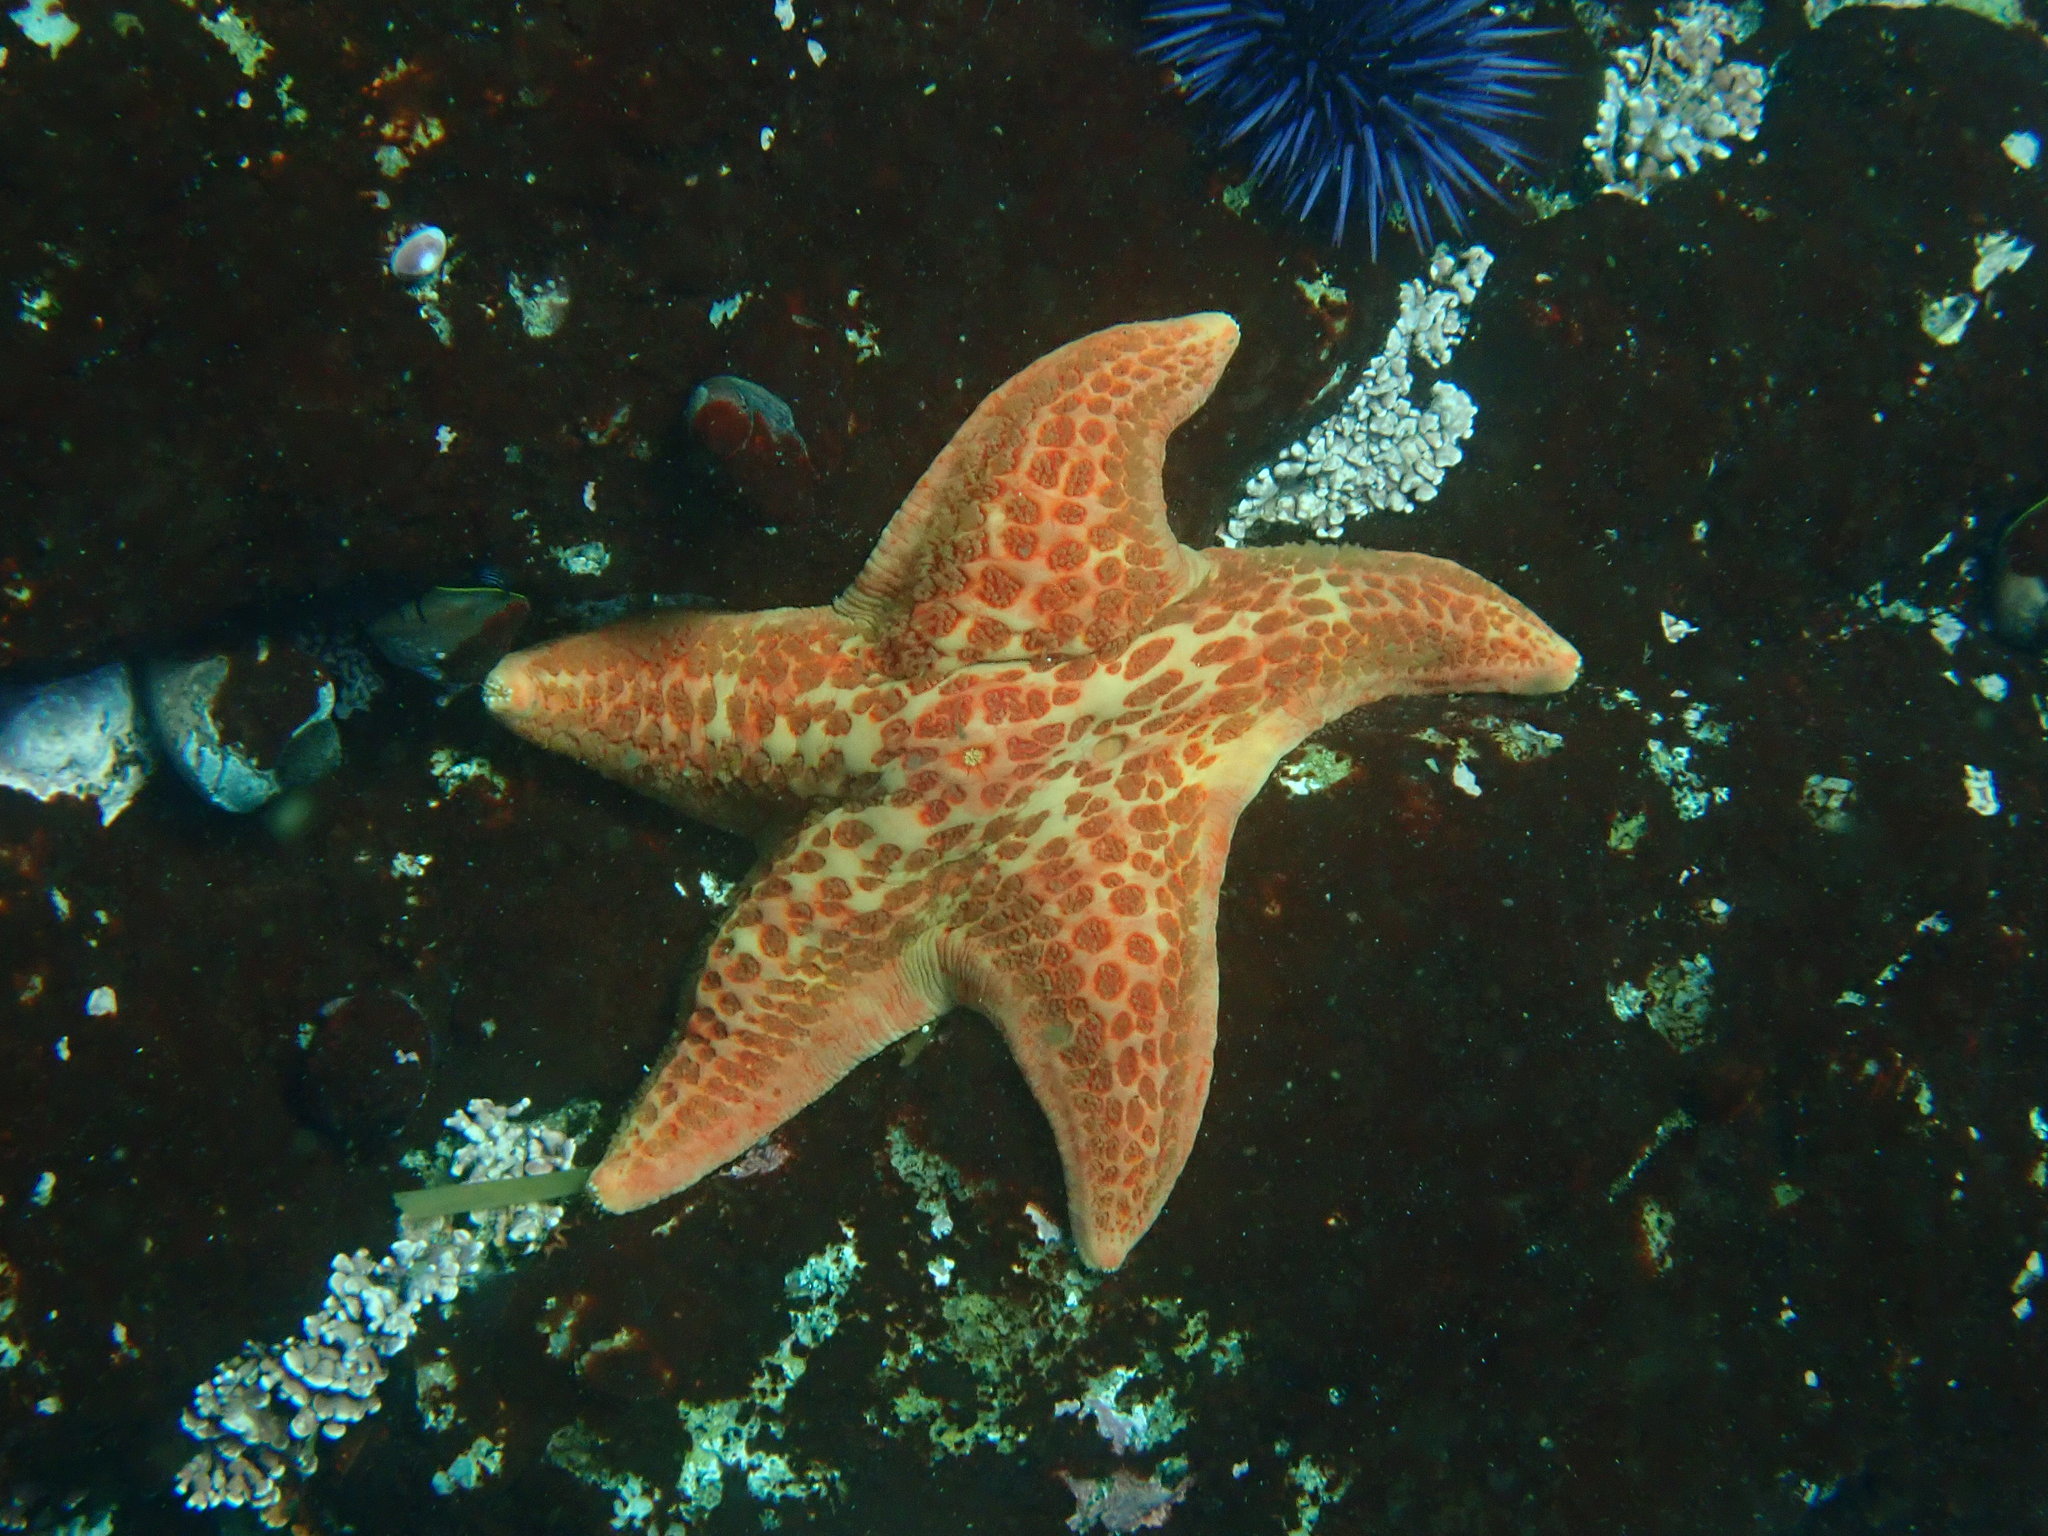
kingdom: Animalia
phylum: Echinodermata
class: Asteroidea
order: Valvatida
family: Asteropseidae
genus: Dermasterias
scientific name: Dermasterias imbricata
